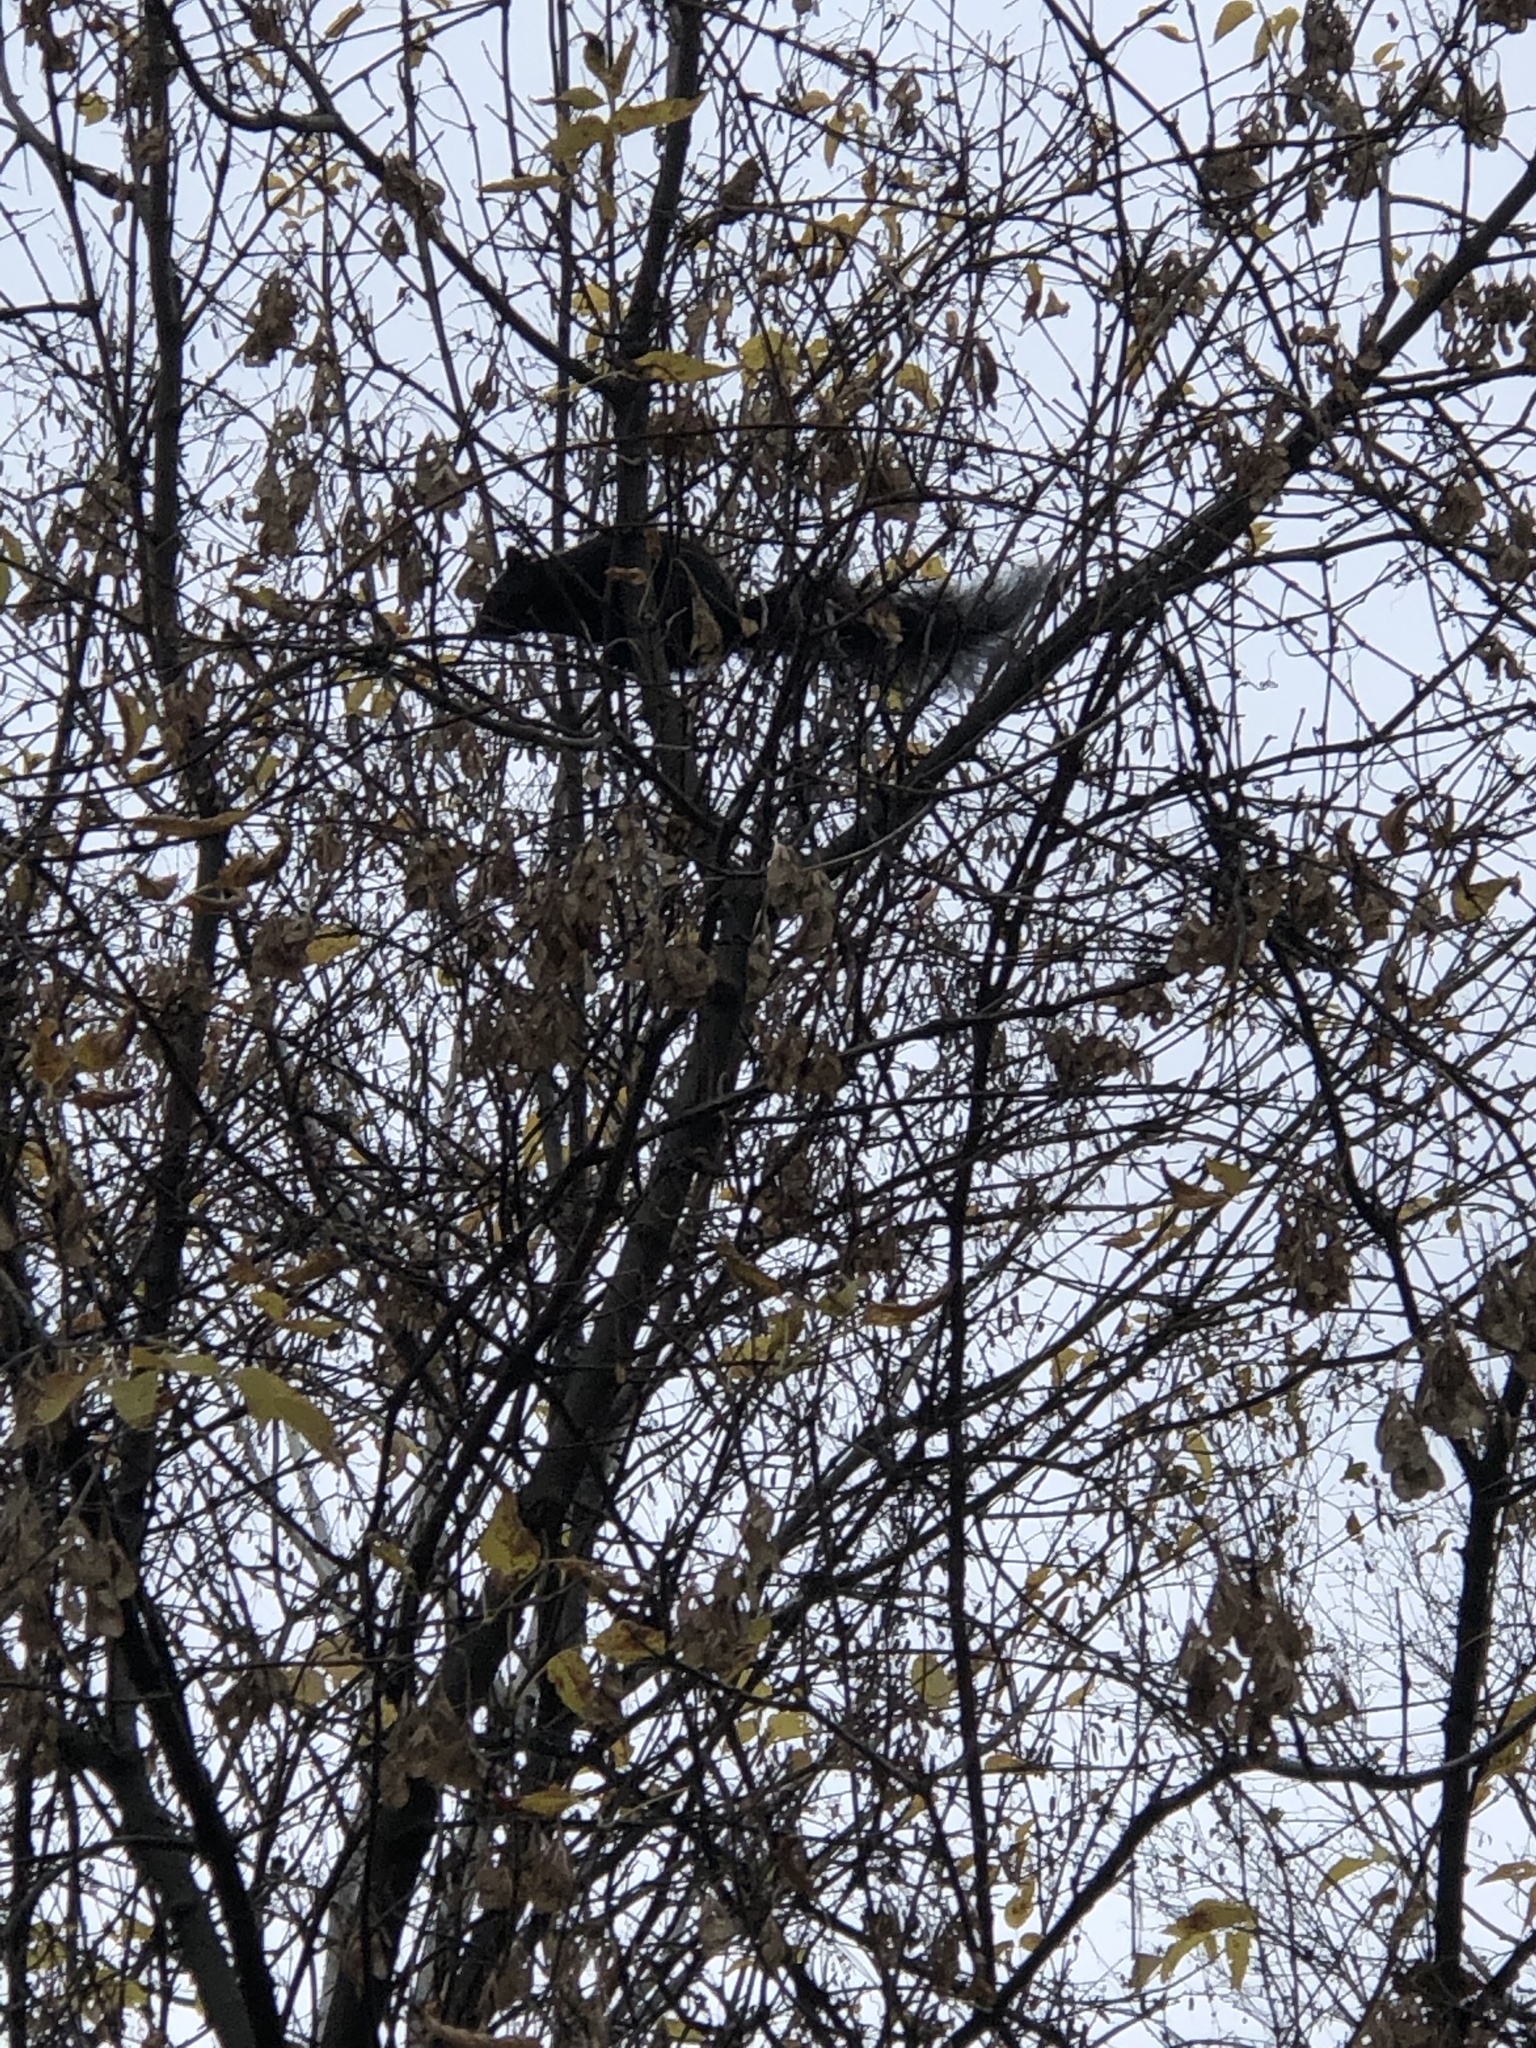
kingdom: Animalia
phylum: Chordata
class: Mammalia
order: Rodentia
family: Sciuridae
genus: Sciurus
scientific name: Sciurus carolinensis
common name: Eastern gray squirrel
